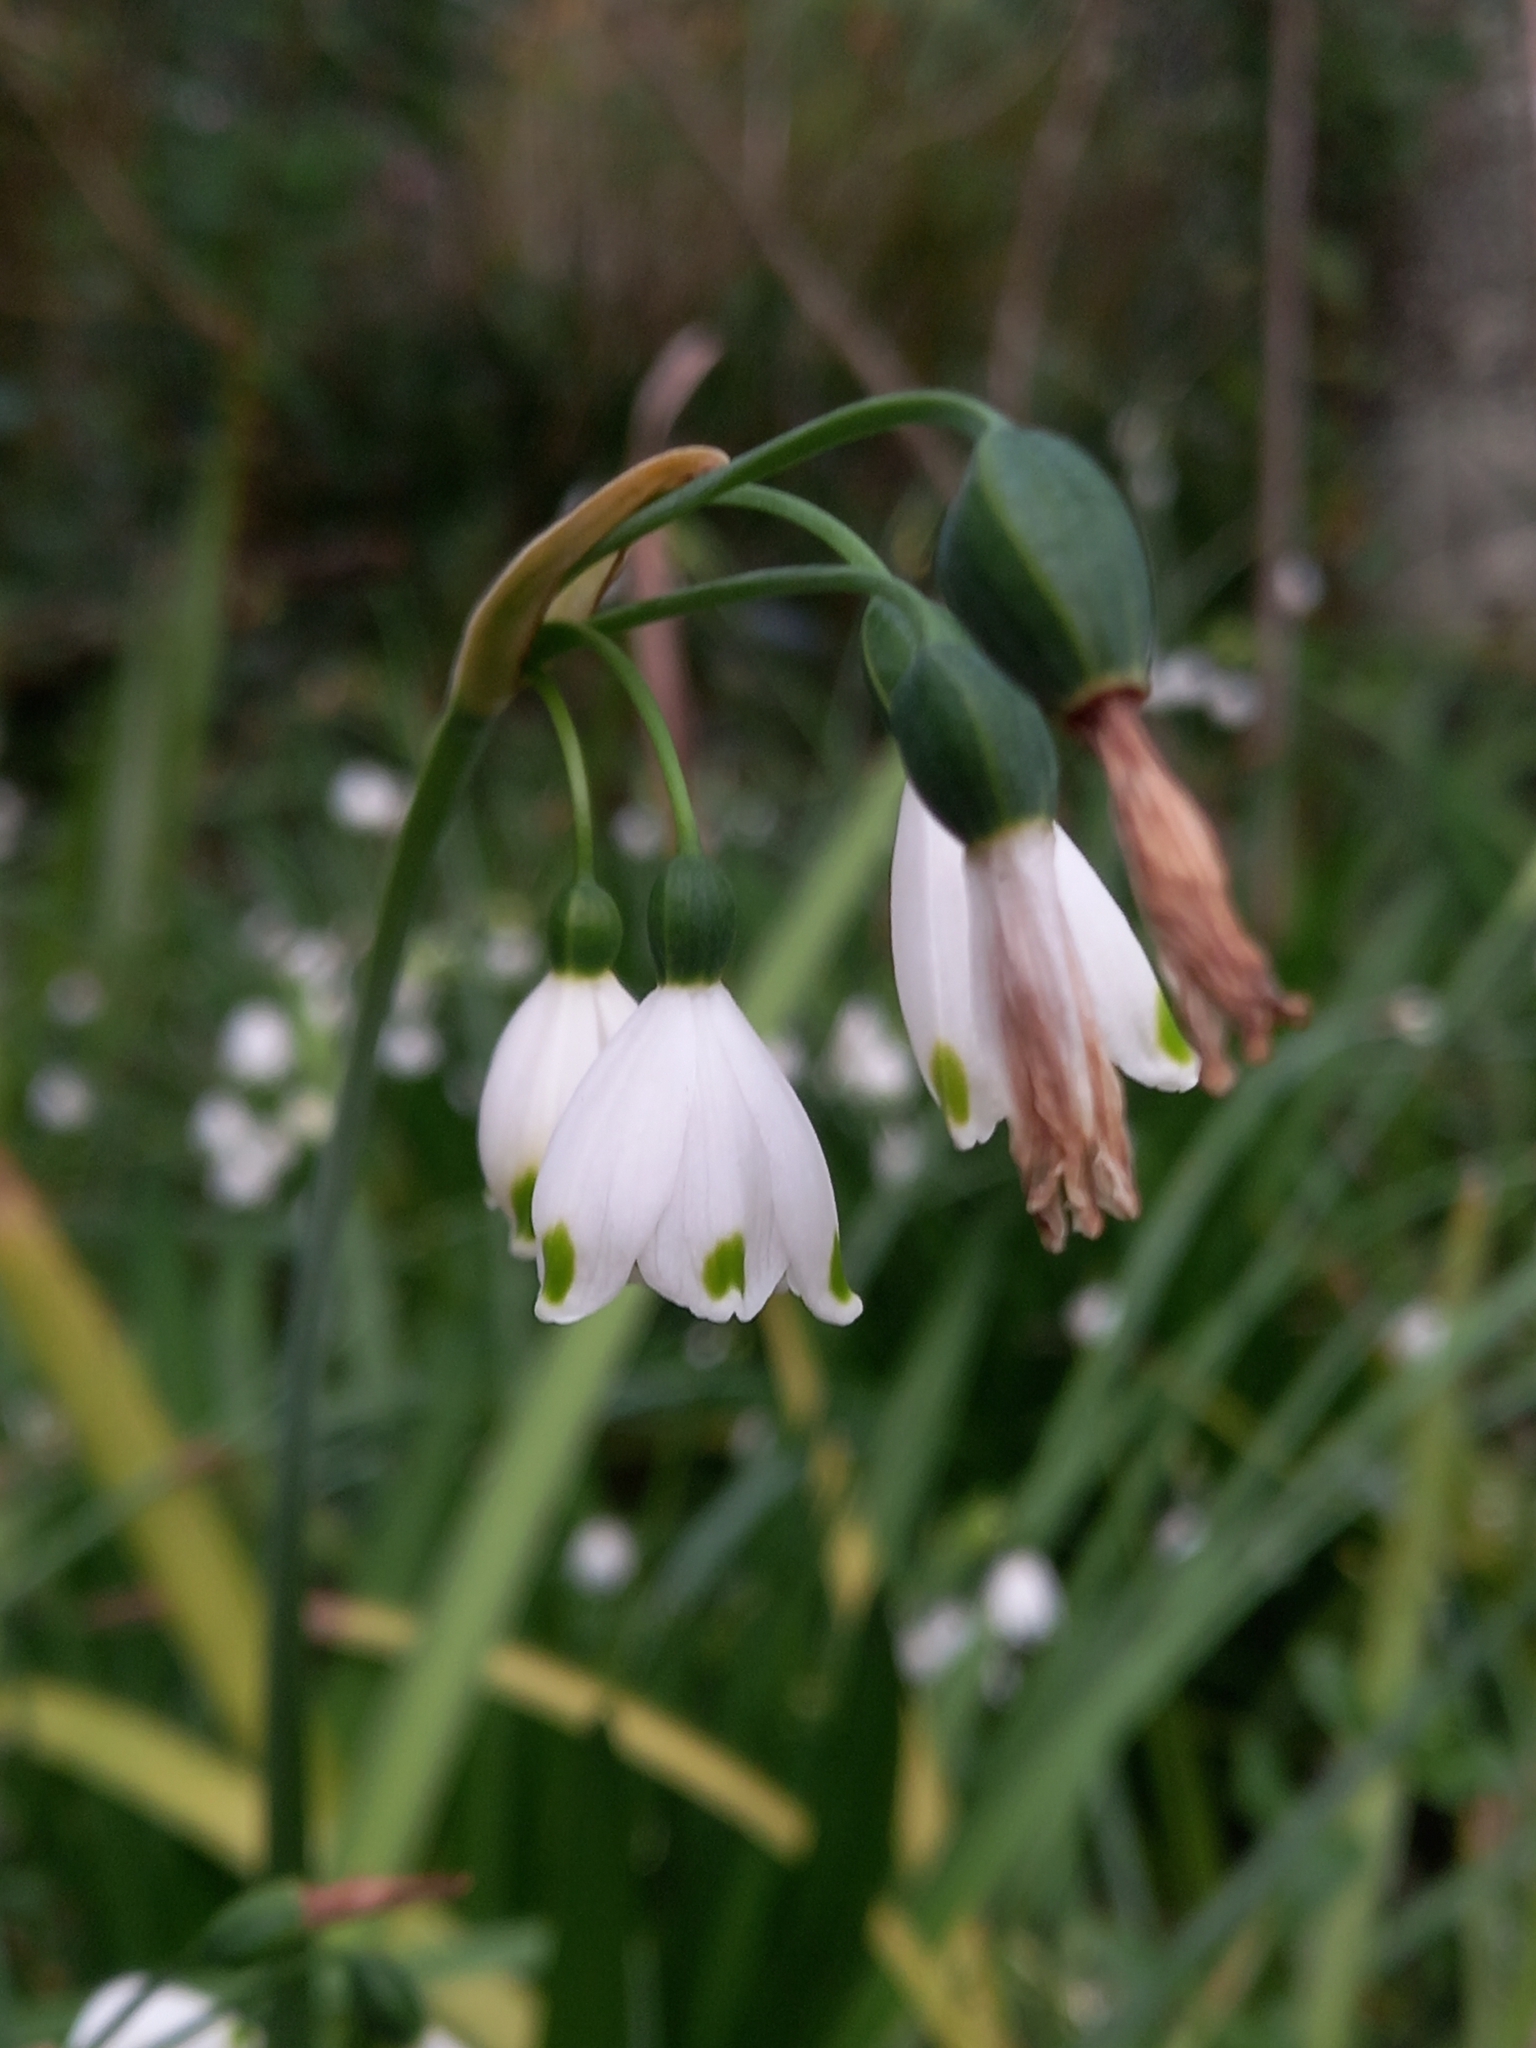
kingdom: Plantae
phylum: Tracheophyta
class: Liliopsida
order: Asparagales
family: Amaryllidaceae
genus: Leucojum
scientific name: Leucojum aestivum
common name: Summer snowflake
